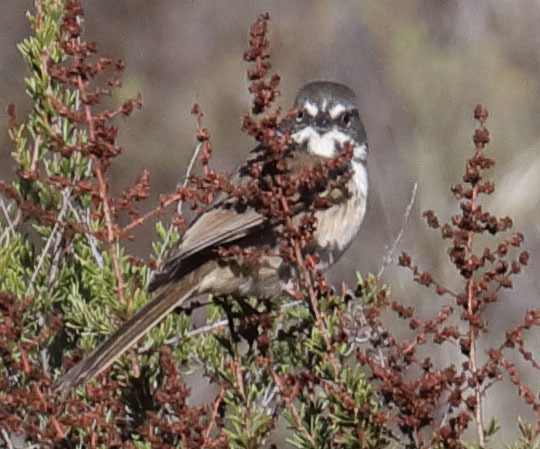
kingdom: Animalia
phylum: Chordata
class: Aves
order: Passeriformes
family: Passerellidae
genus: Artemisiospiza
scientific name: Artemisiospiza belli
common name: Bell's sparrow
